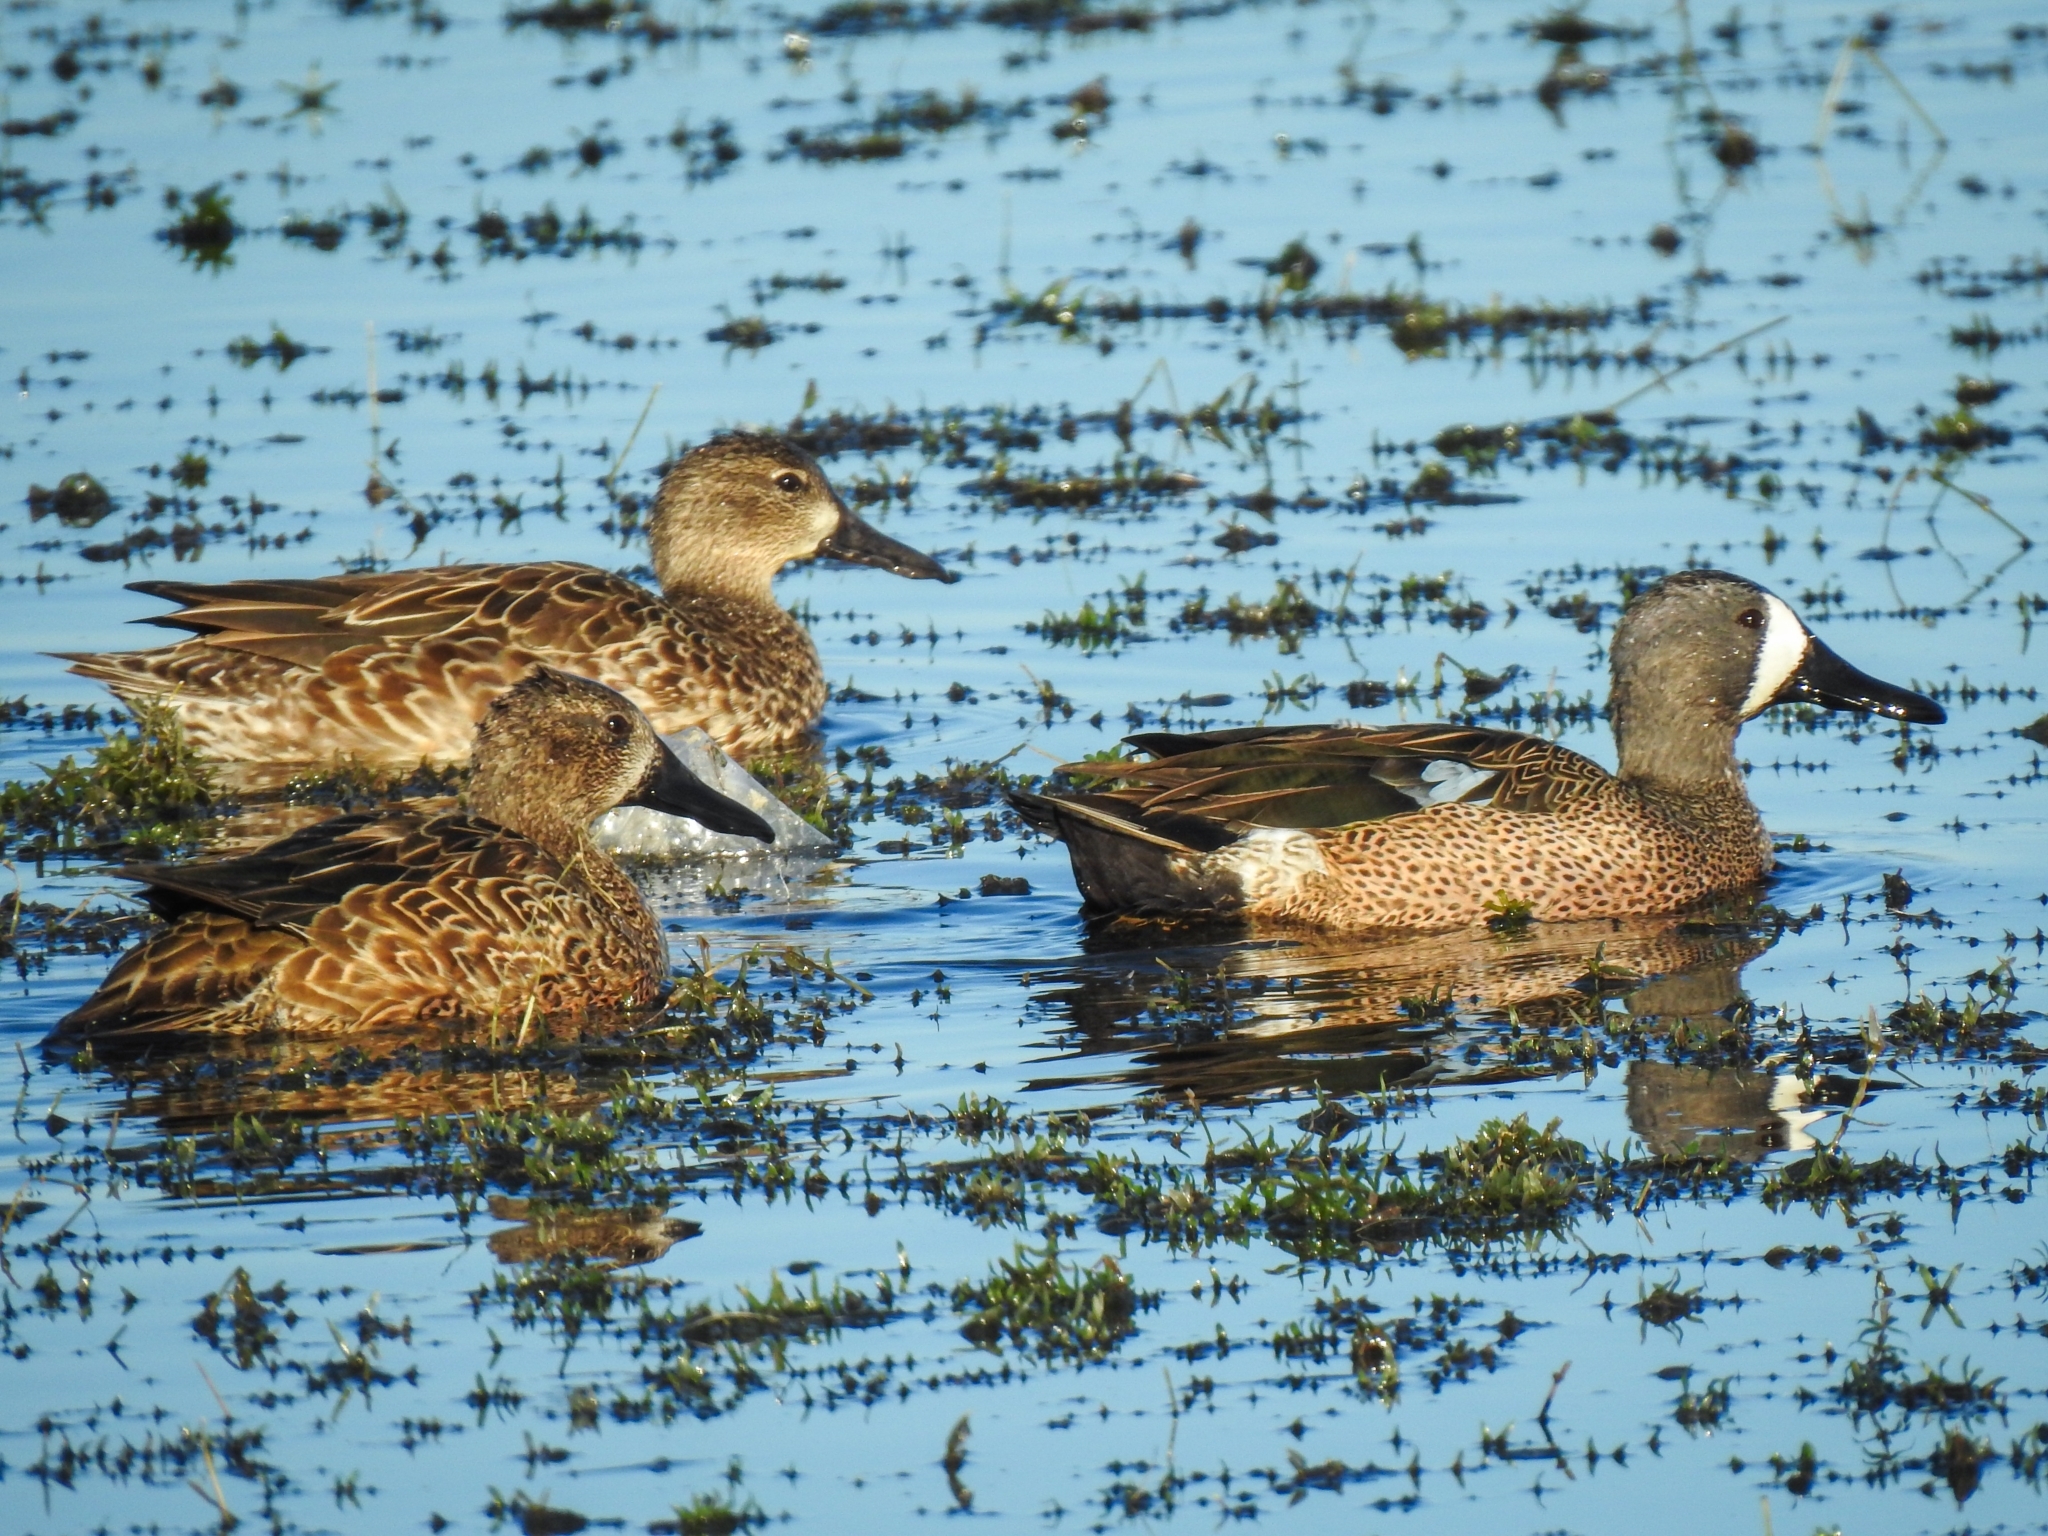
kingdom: Animalia
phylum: Chordata
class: Aves
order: Anseriformes
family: Anatidae
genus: Spatula
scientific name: Spatula discors
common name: Blue-winged teal
